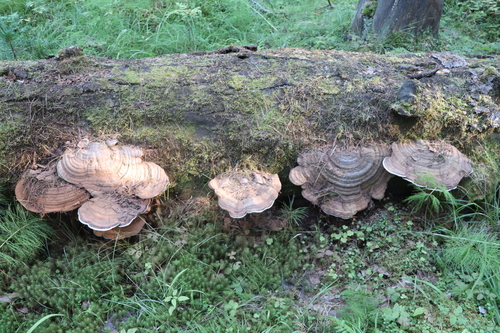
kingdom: Fungi
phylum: Basidiomycota
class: Agaricomycetes
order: Polyporales
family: Polyporaceae
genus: Ganoderma
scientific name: Ganoderma applanatum
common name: Artist's bracket
